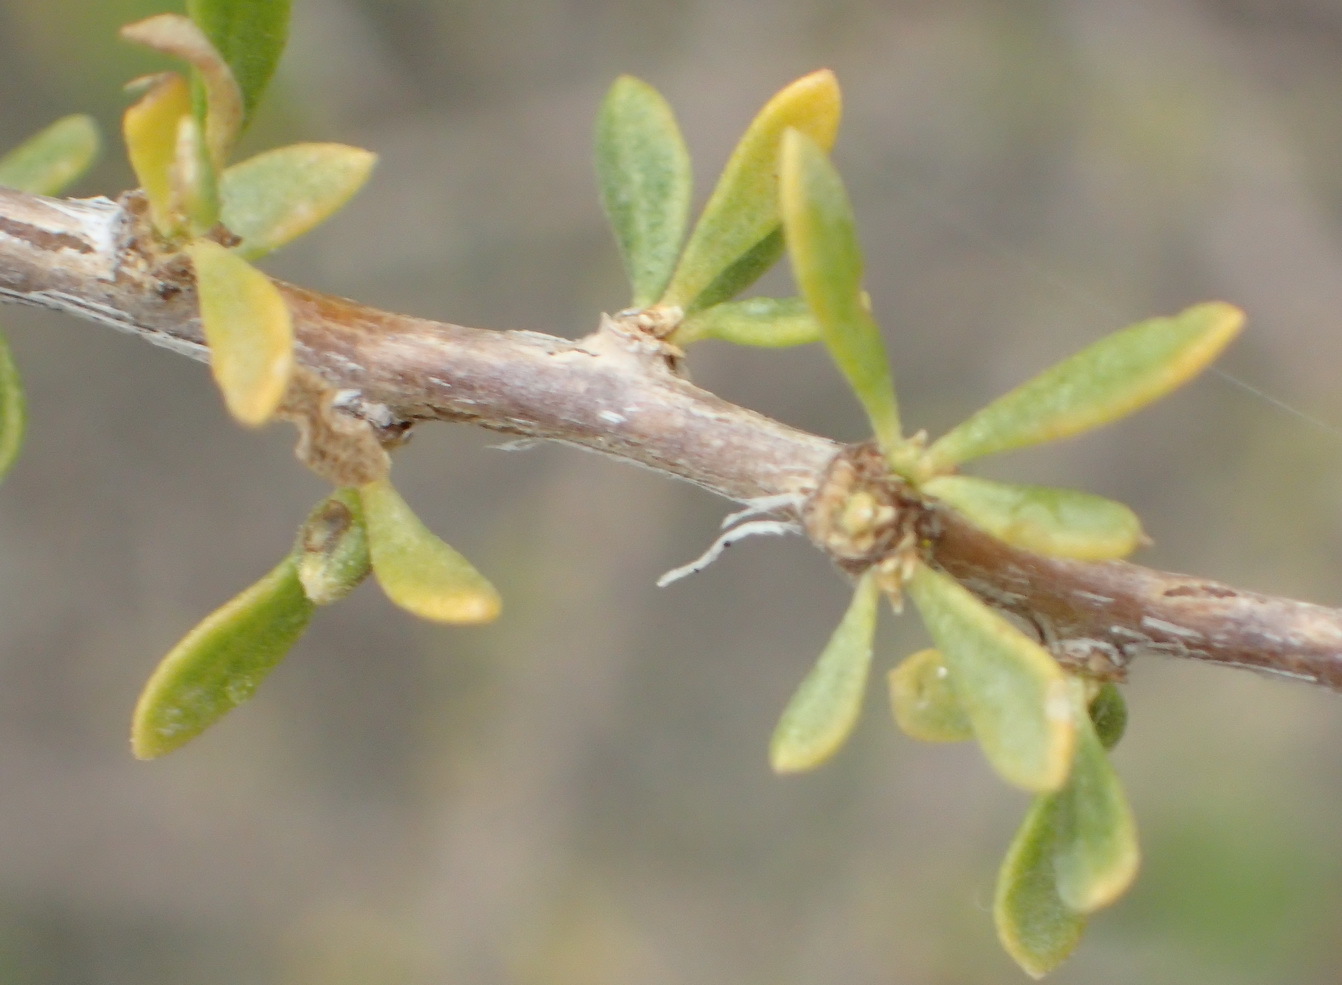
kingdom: Plantae
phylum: Tracheophyta
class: Magnoliopsida
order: Solanales
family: Solanaceae
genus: Lycium
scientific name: Lycium horridum
